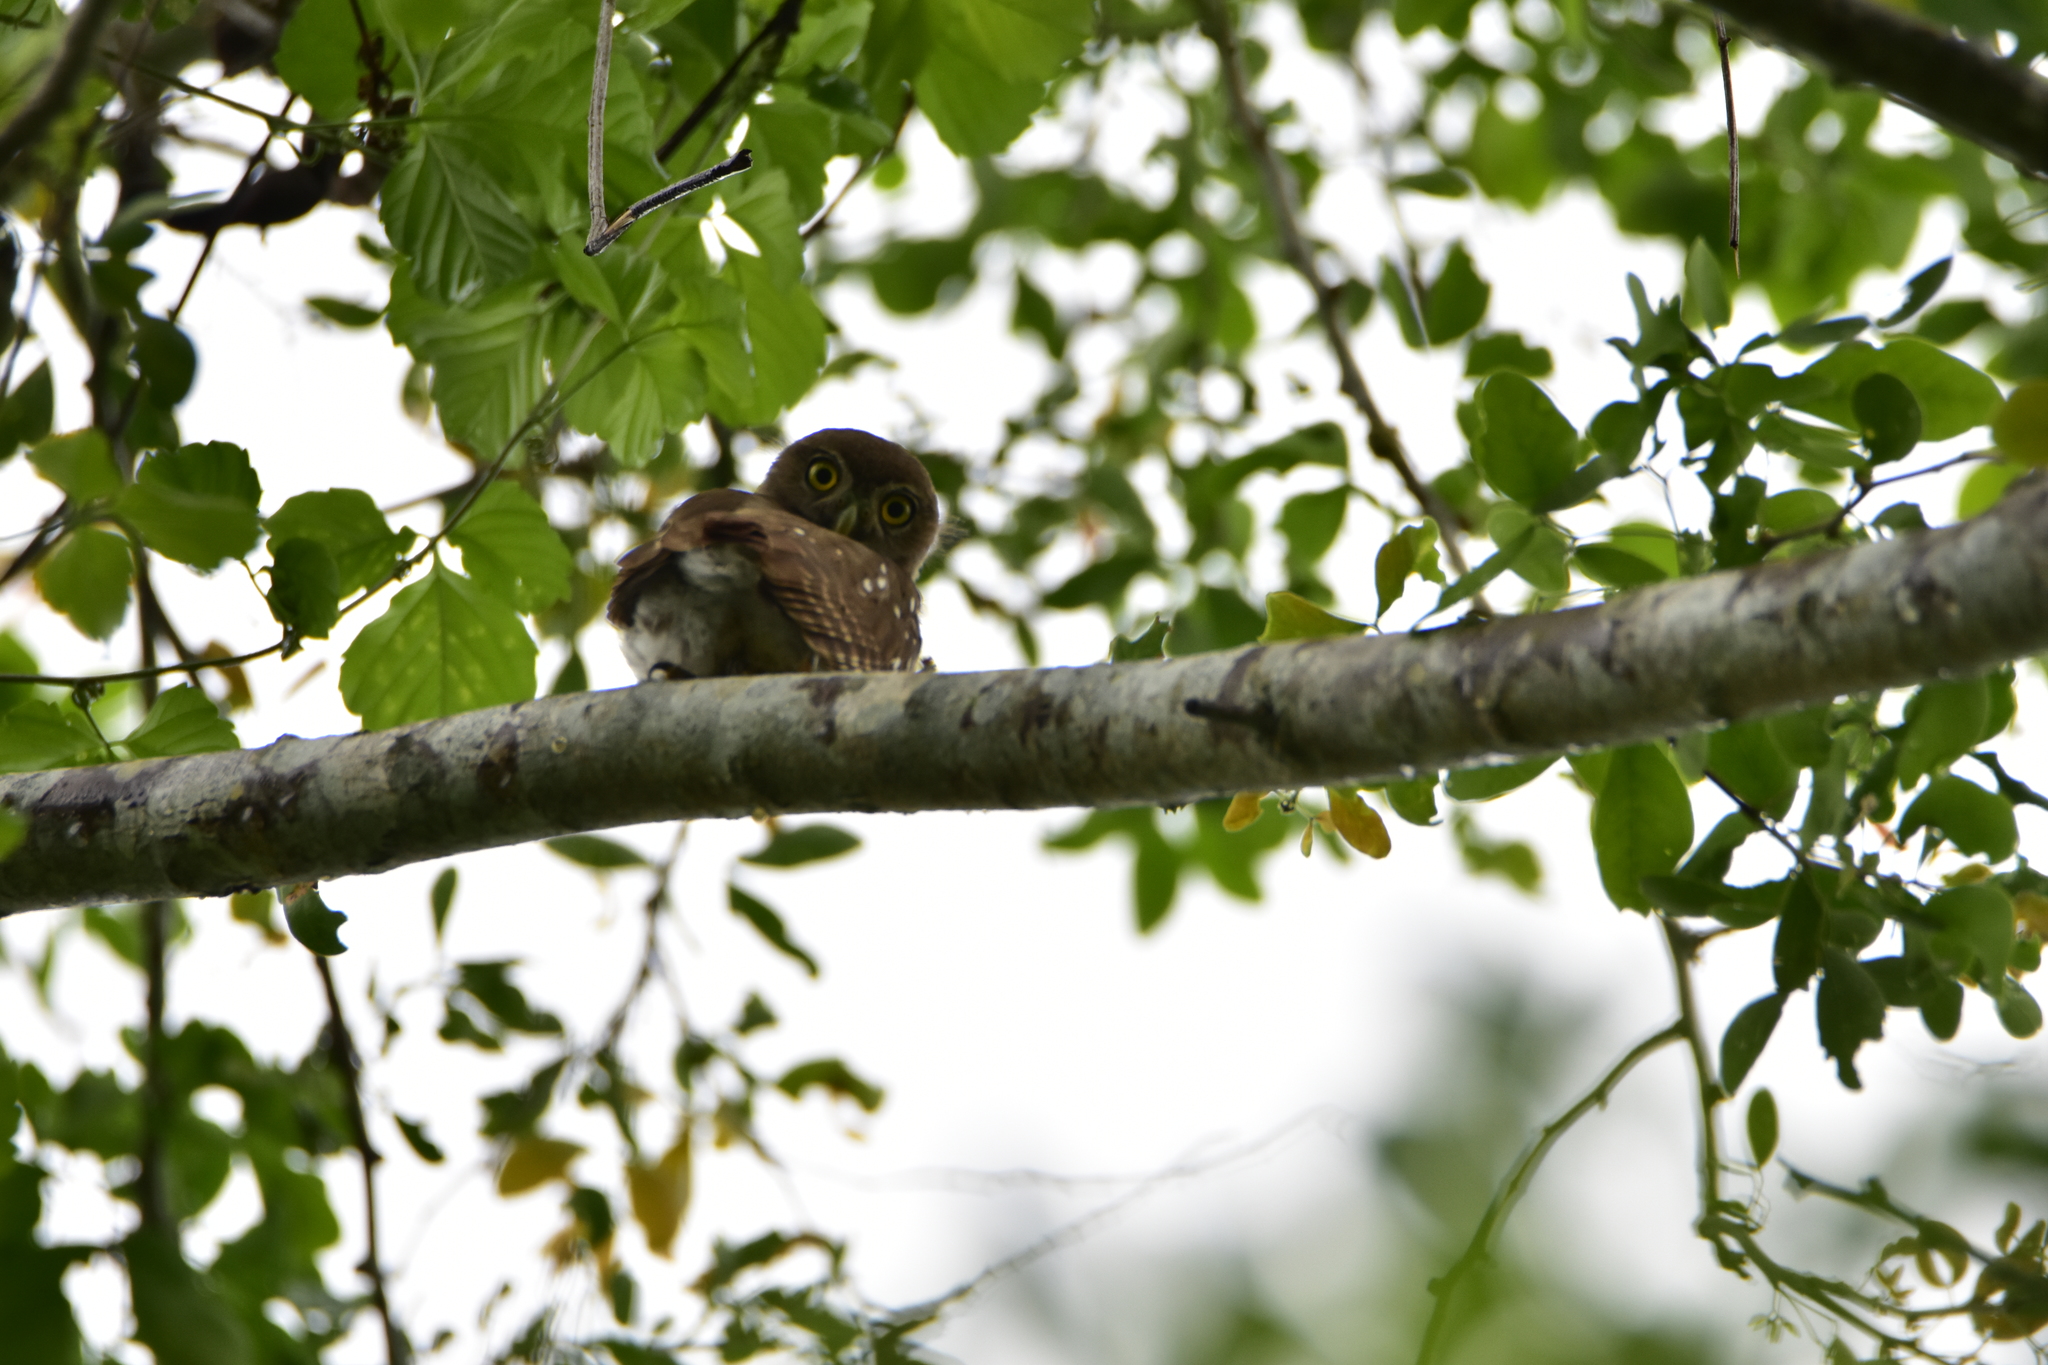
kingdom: Animalia
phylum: Chordata
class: Aves
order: Strigiformes
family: Strigidae
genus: Glaucidium
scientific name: Glaucidium brasilianum
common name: Ferruginous pygmy-owl
